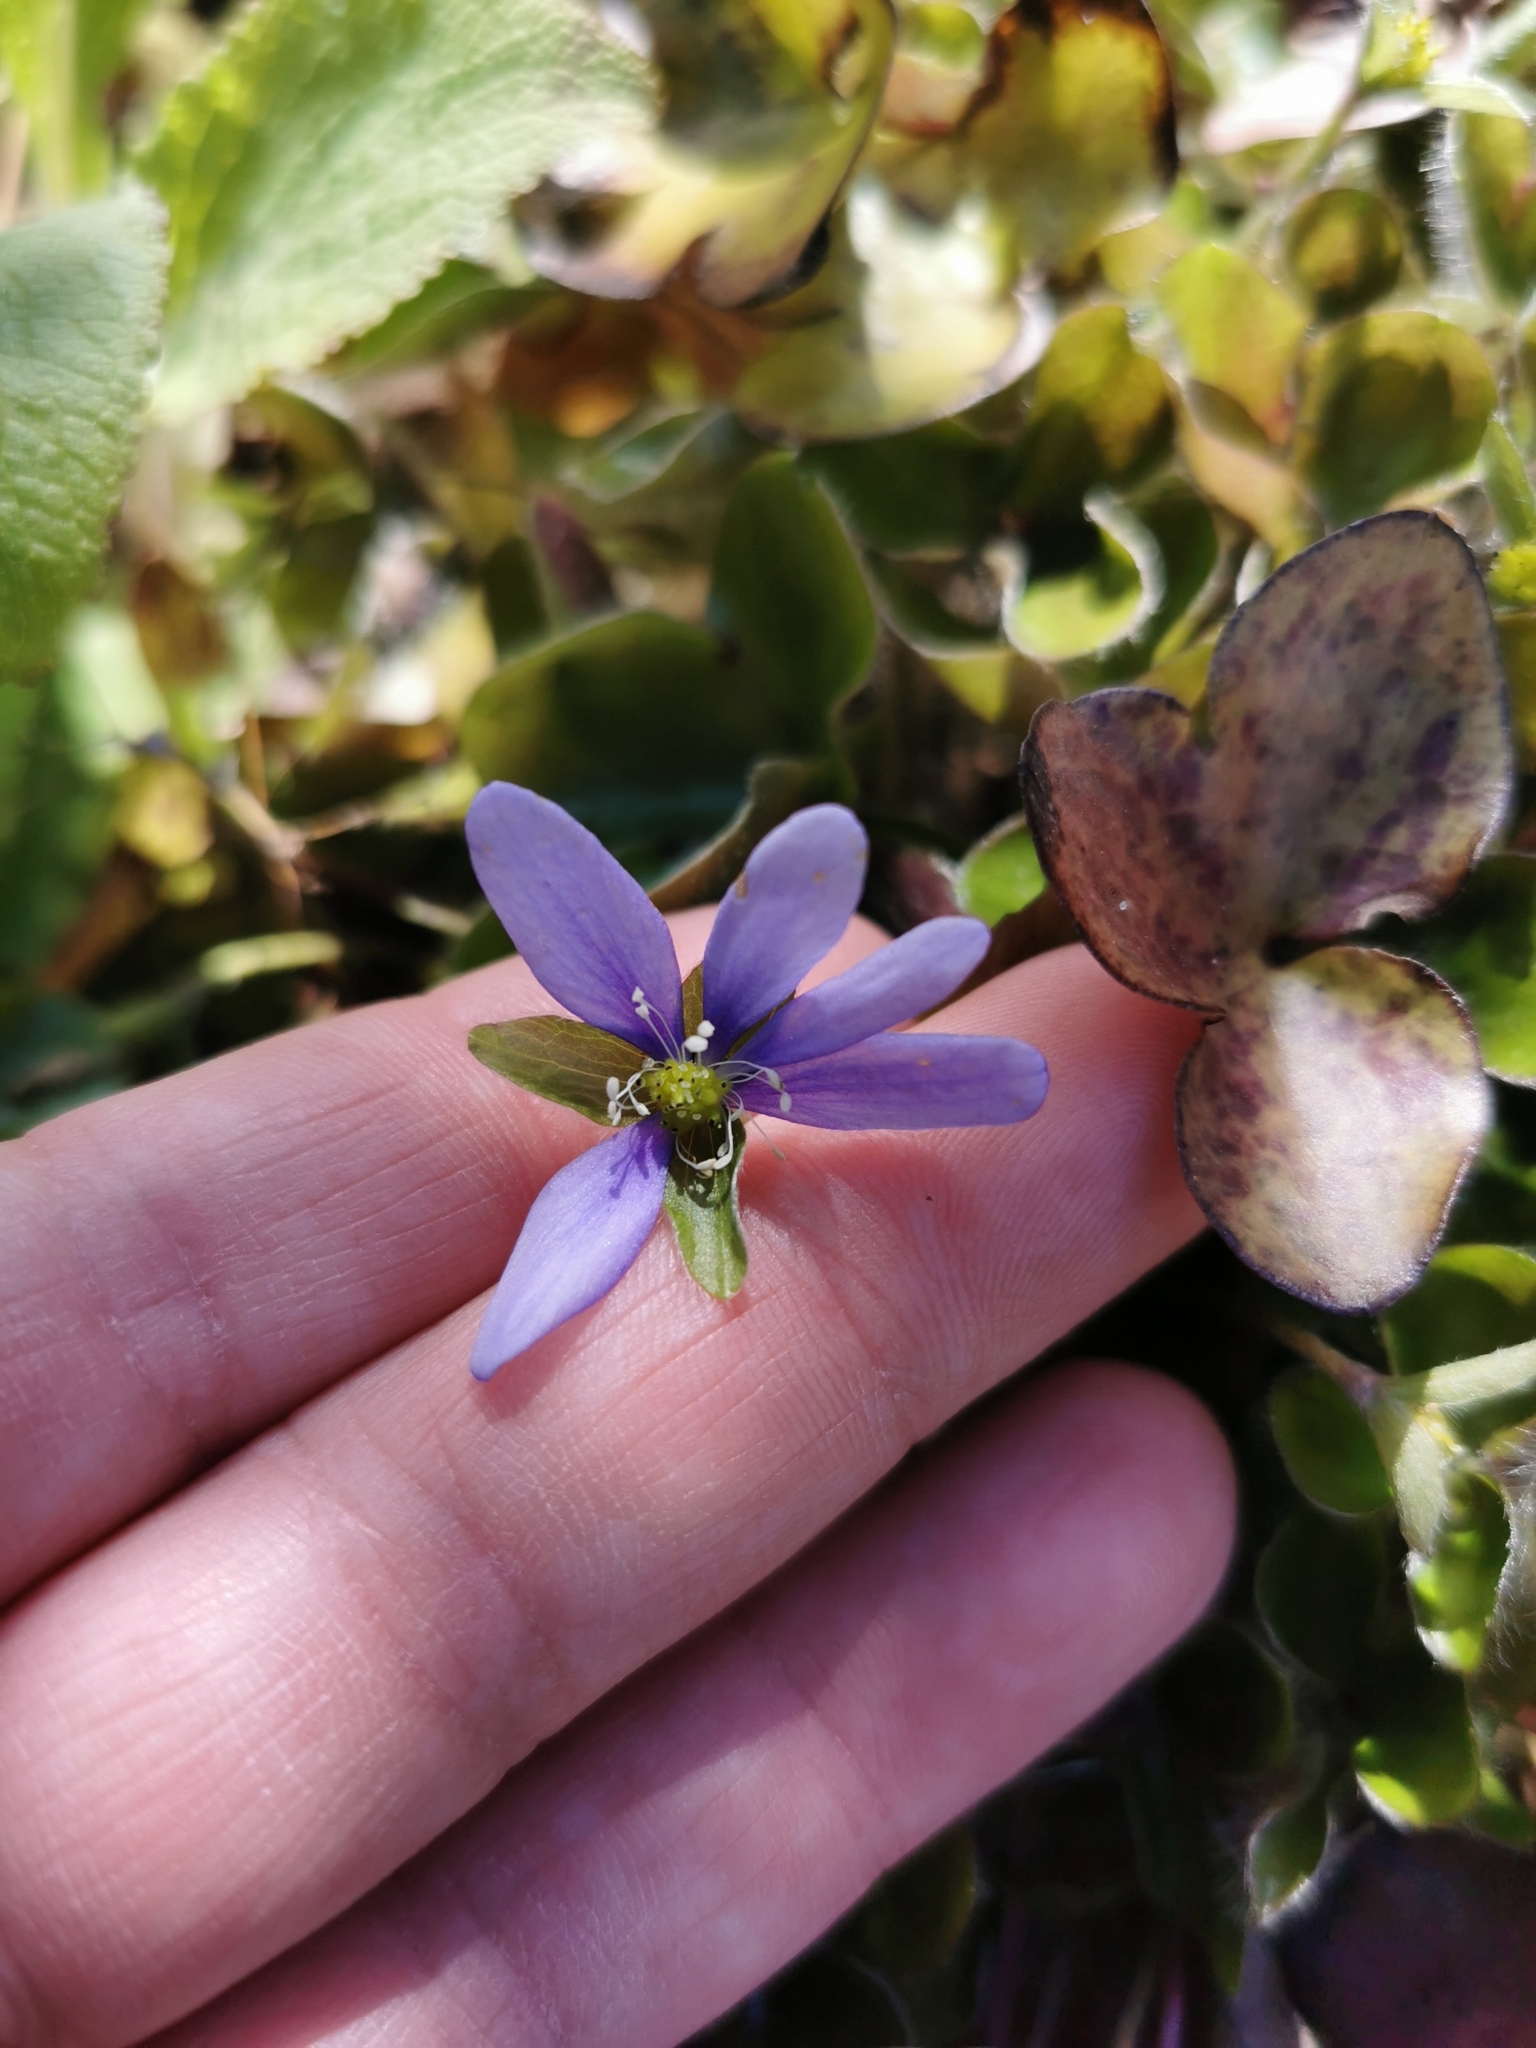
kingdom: Plantae
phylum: Tracheophyta
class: Magnoliopsida
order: Ranunculales
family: Ranunculaceae
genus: Hepatica
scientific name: Hepatica nobilis
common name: Liverleaf
